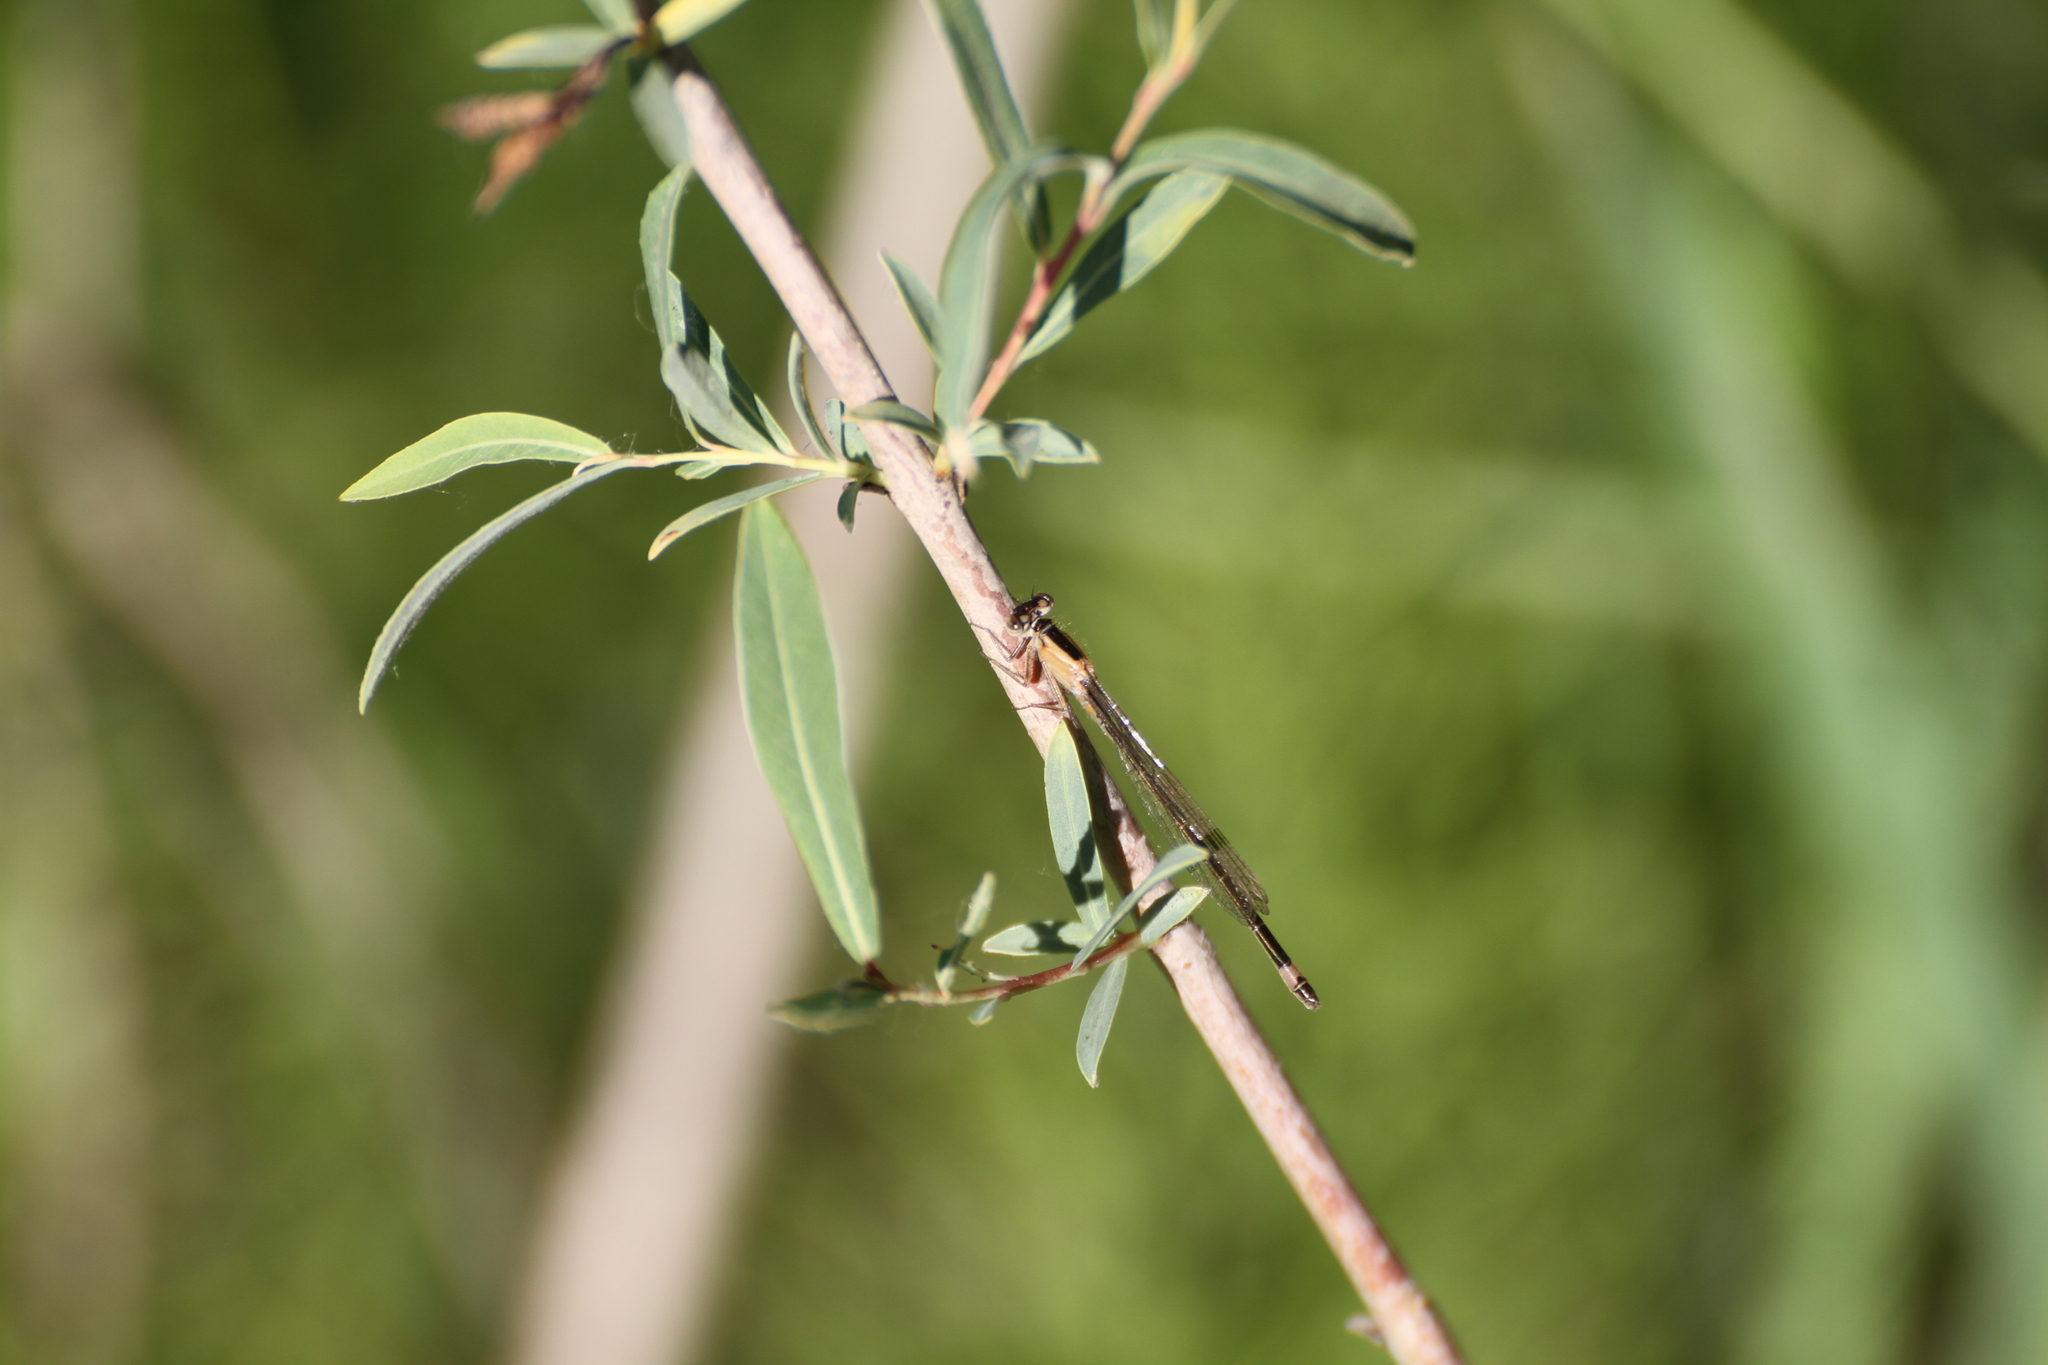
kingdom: Animalia
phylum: Arthropoda
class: Insecta
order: Odonata
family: Coenagrionidae
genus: Ischnura
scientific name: Ischnura elegans
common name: Blue-tailed damselfly
